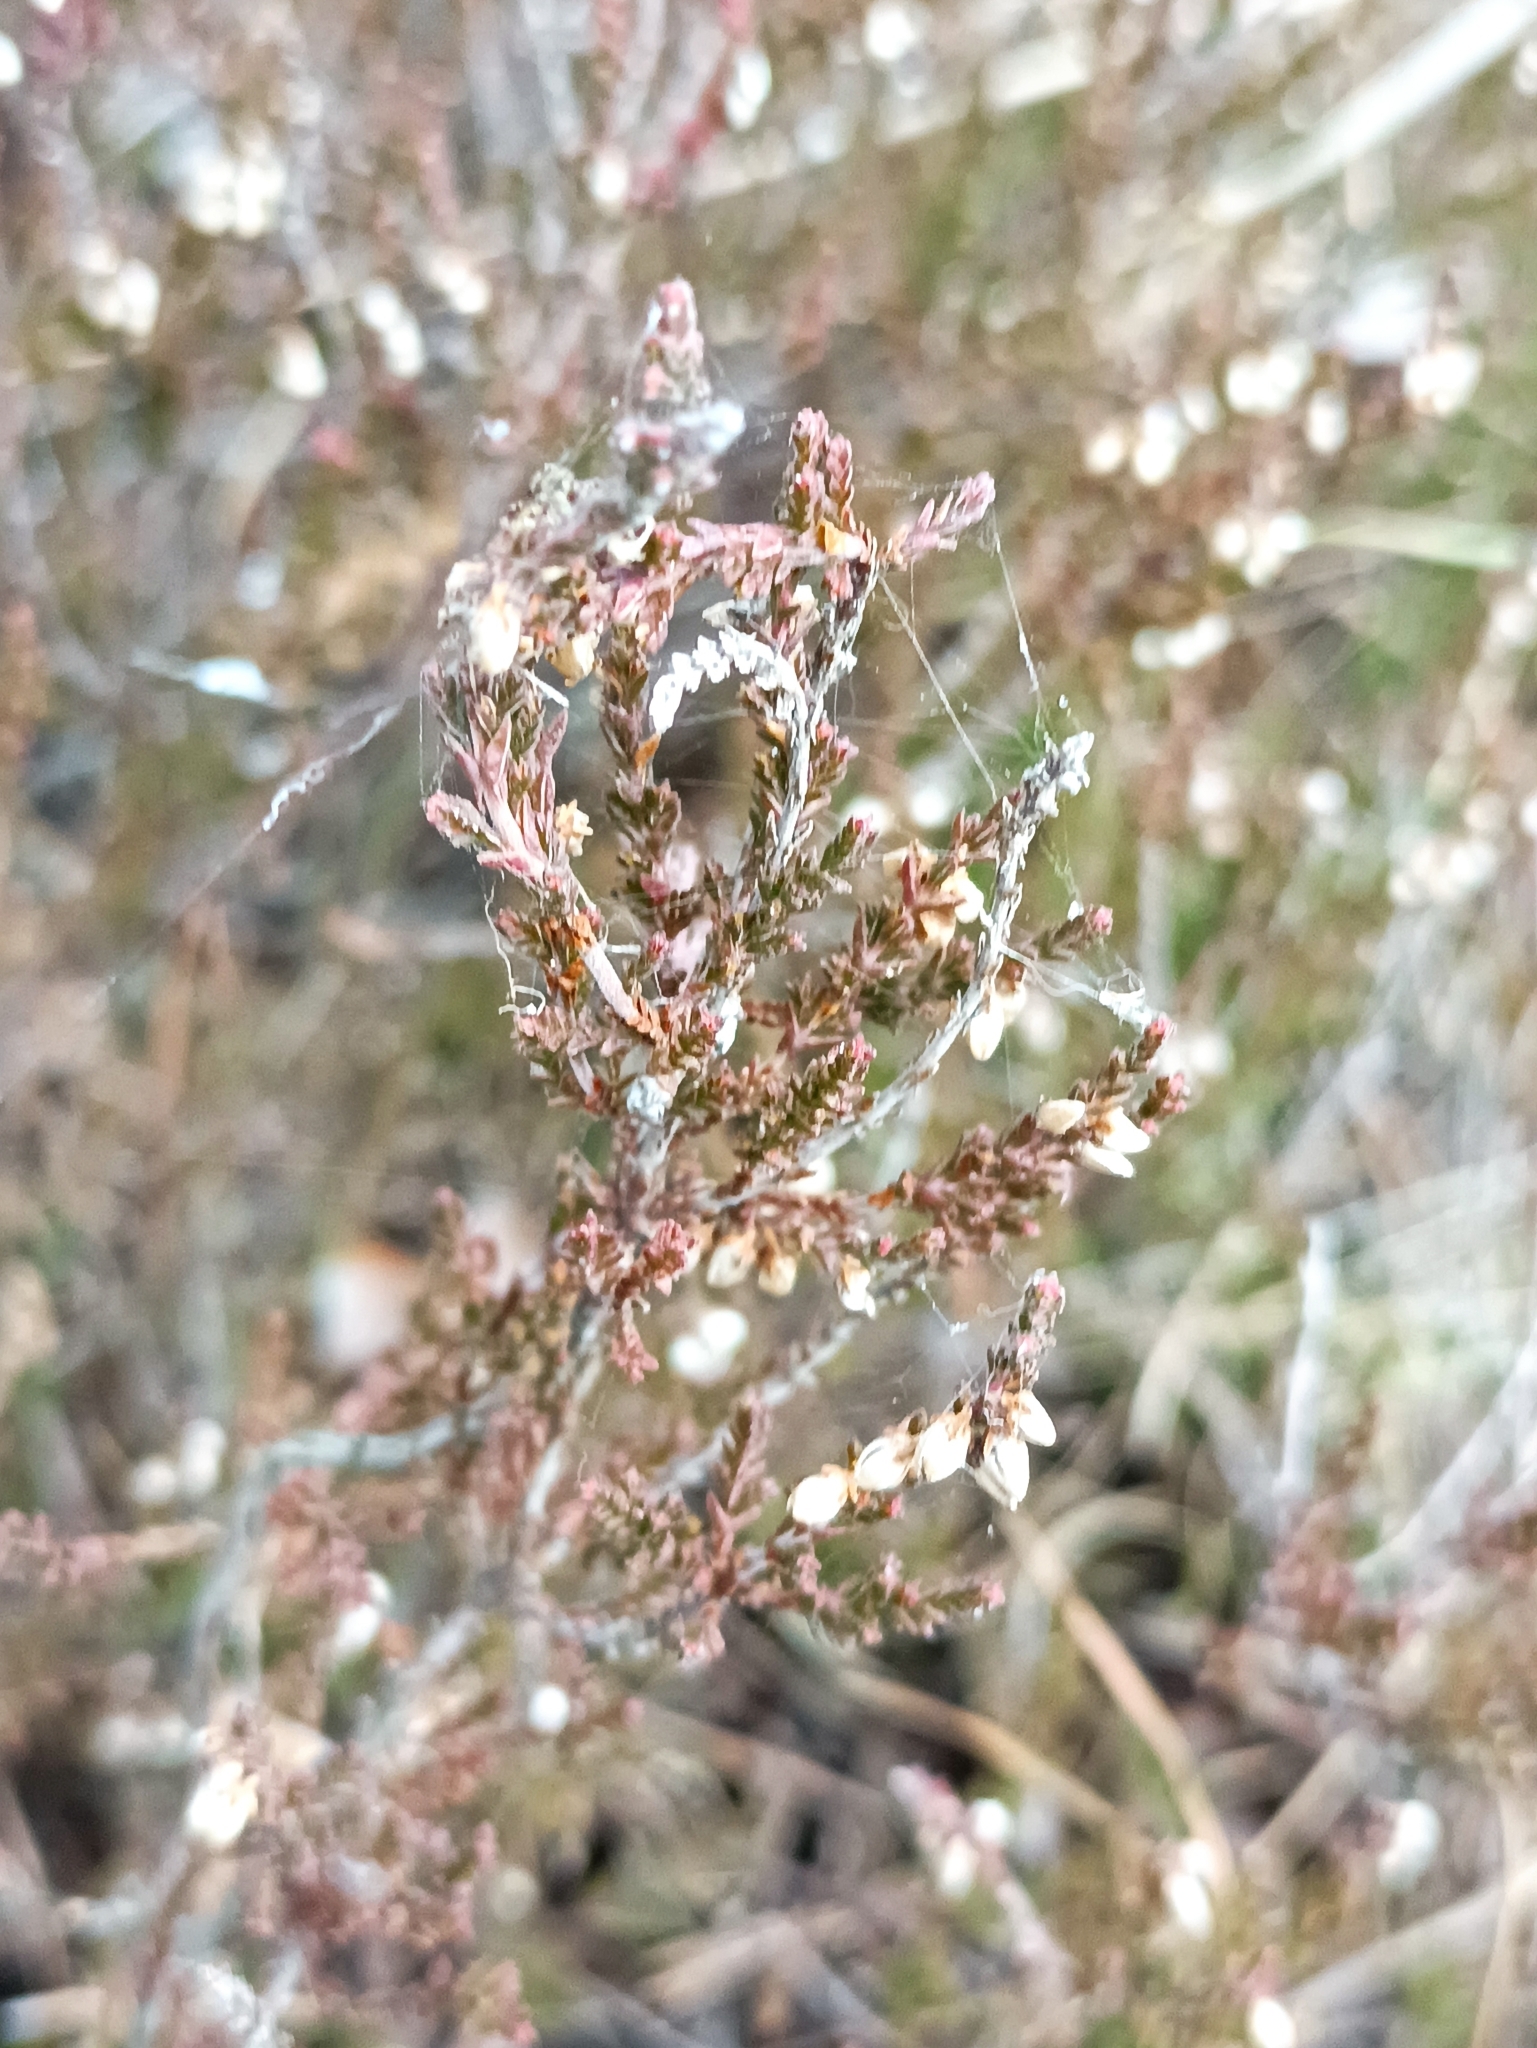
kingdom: Plantae
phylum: Tracheophyta
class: Magnoliopsida
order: Ericales
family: Ericaceae
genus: Calluna
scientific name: Calluna vulgaris
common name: Heather
